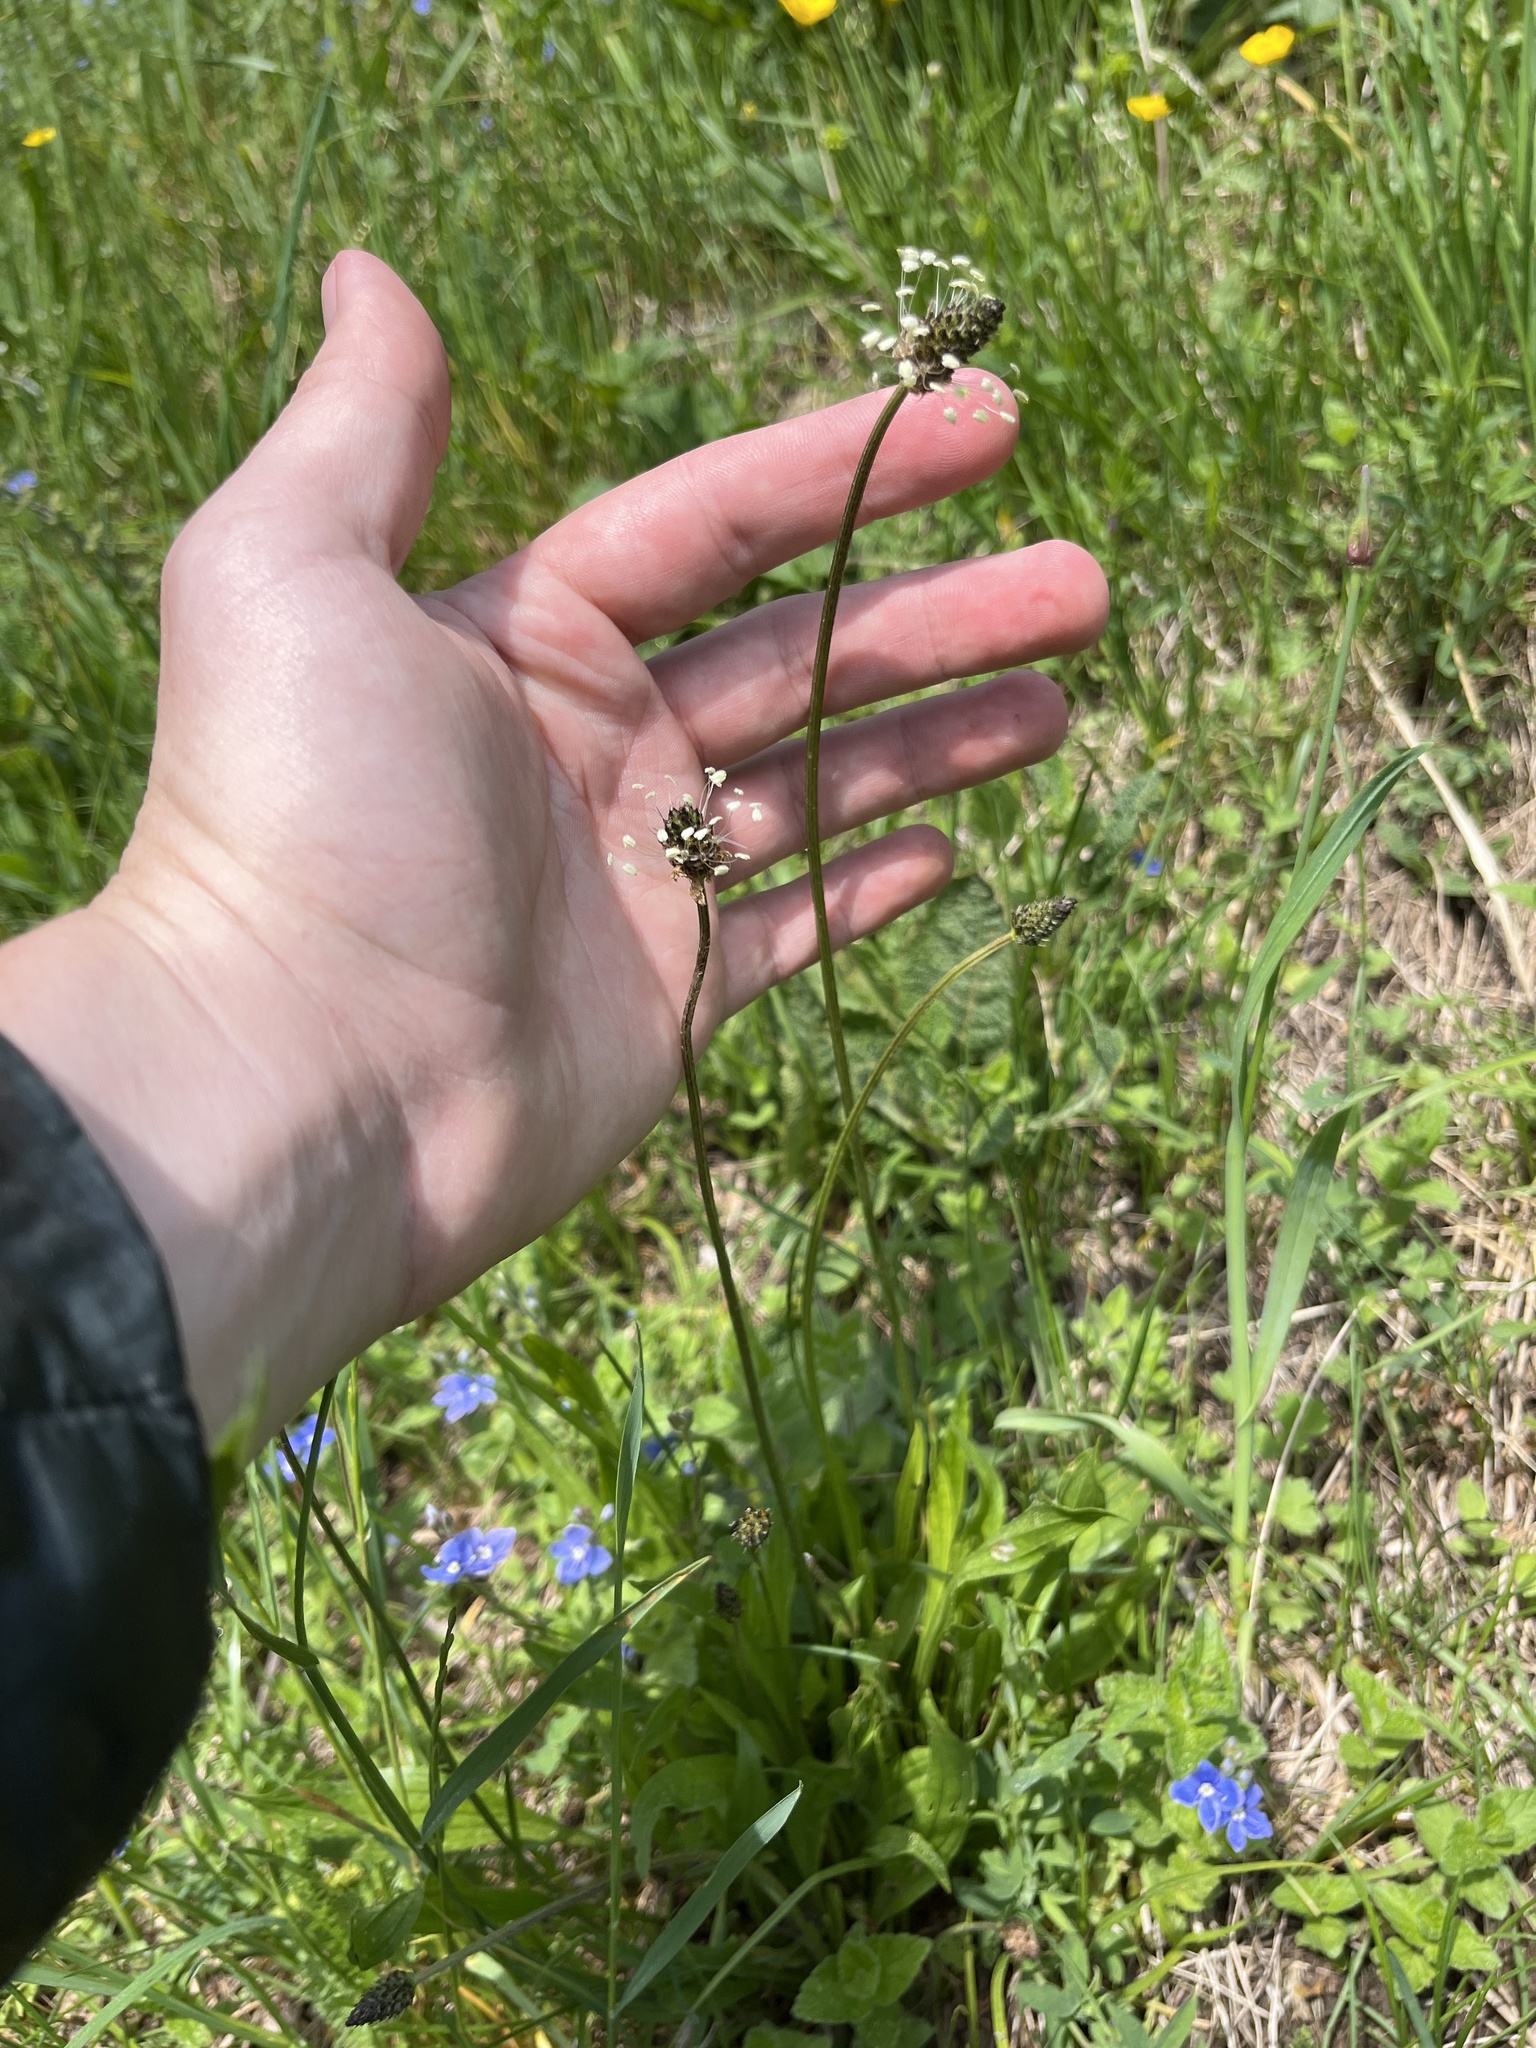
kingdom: Plantae
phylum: Tracheophyta
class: Magnoliopsida
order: Lamiales
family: Plantaginaceae
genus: Plantago
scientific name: Plantago lanceolata
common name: Ribwort plantain
